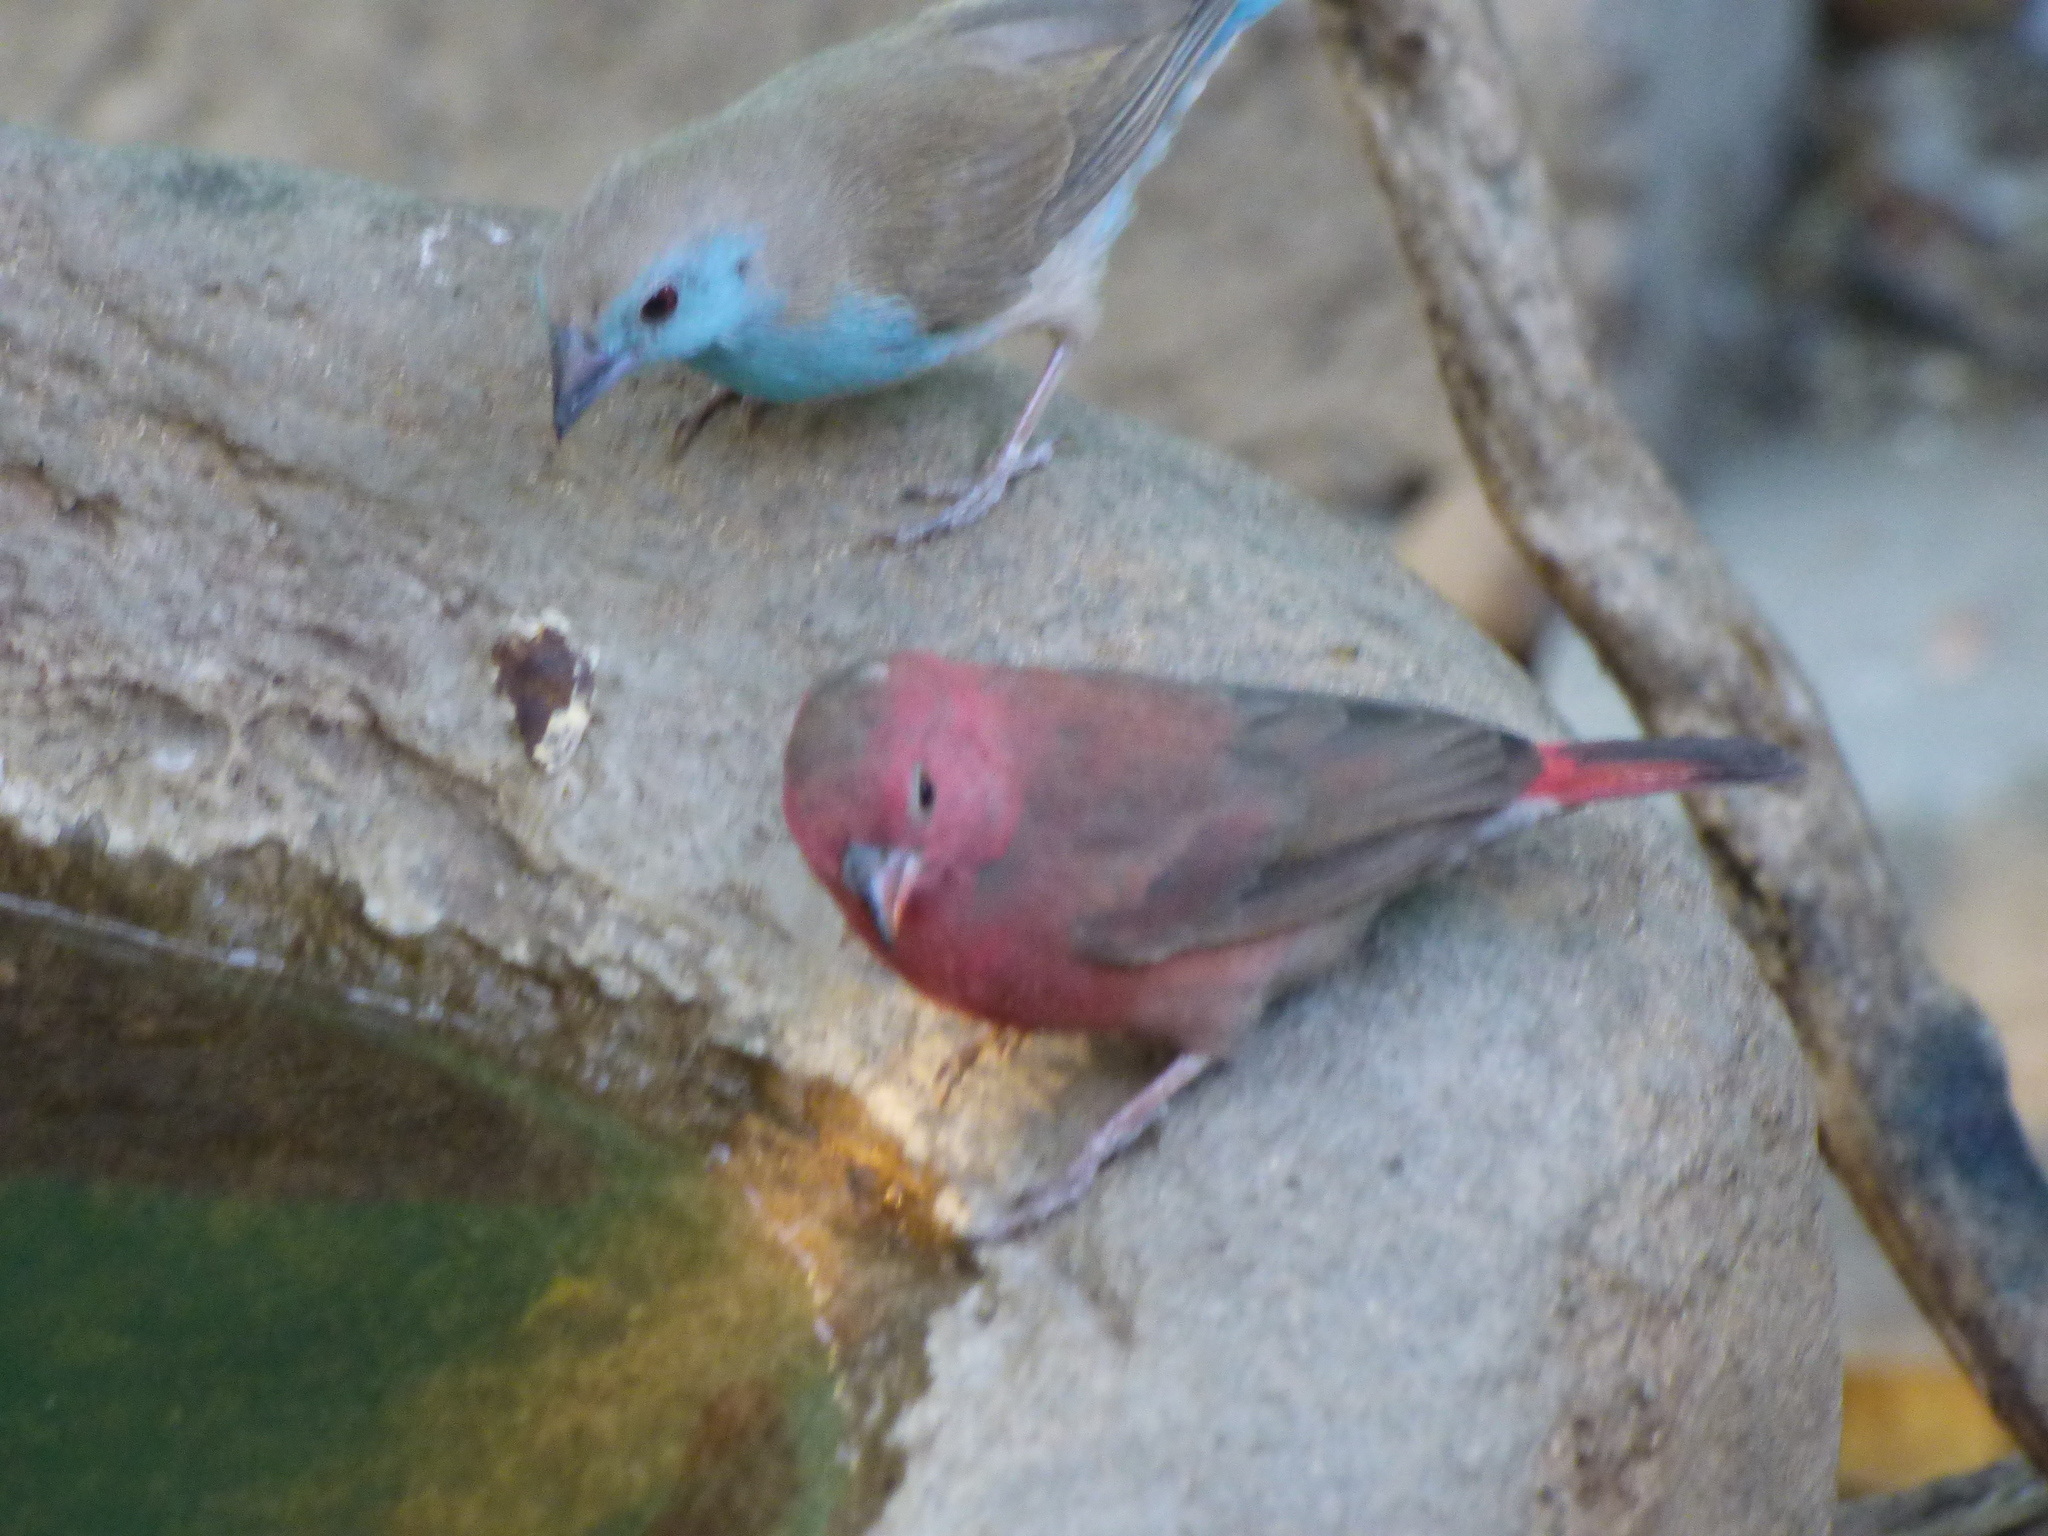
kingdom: Animalia
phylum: Chordata
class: Aves
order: Passeriformes
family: Estrildidae
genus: Uraeginthus
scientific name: Uraeginthus angolensis
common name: Blue waxbill
